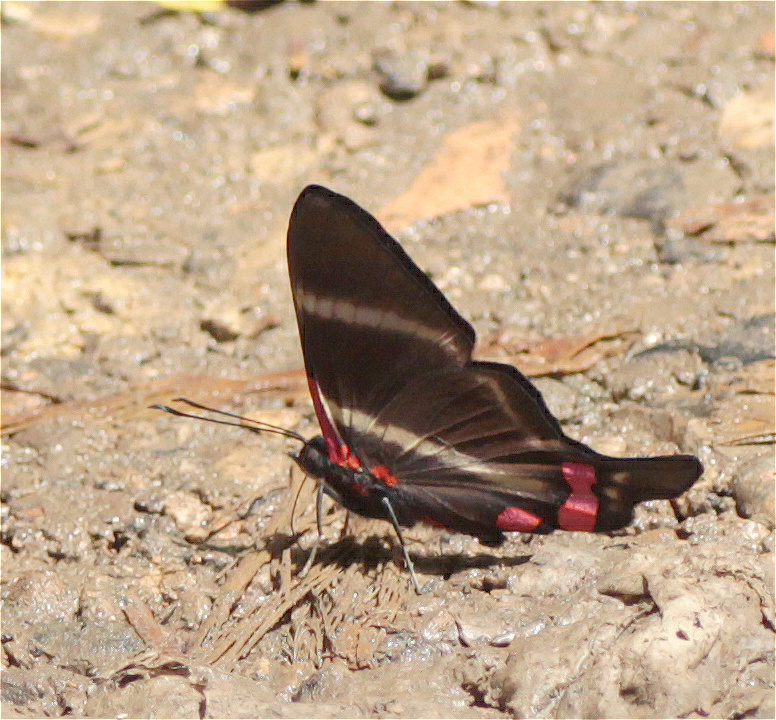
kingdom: Animalia
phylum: Arthropoda
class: Insecta
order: Lepidoptera
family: Riodinidae
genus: Rhetus
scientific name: Rhetus periander
